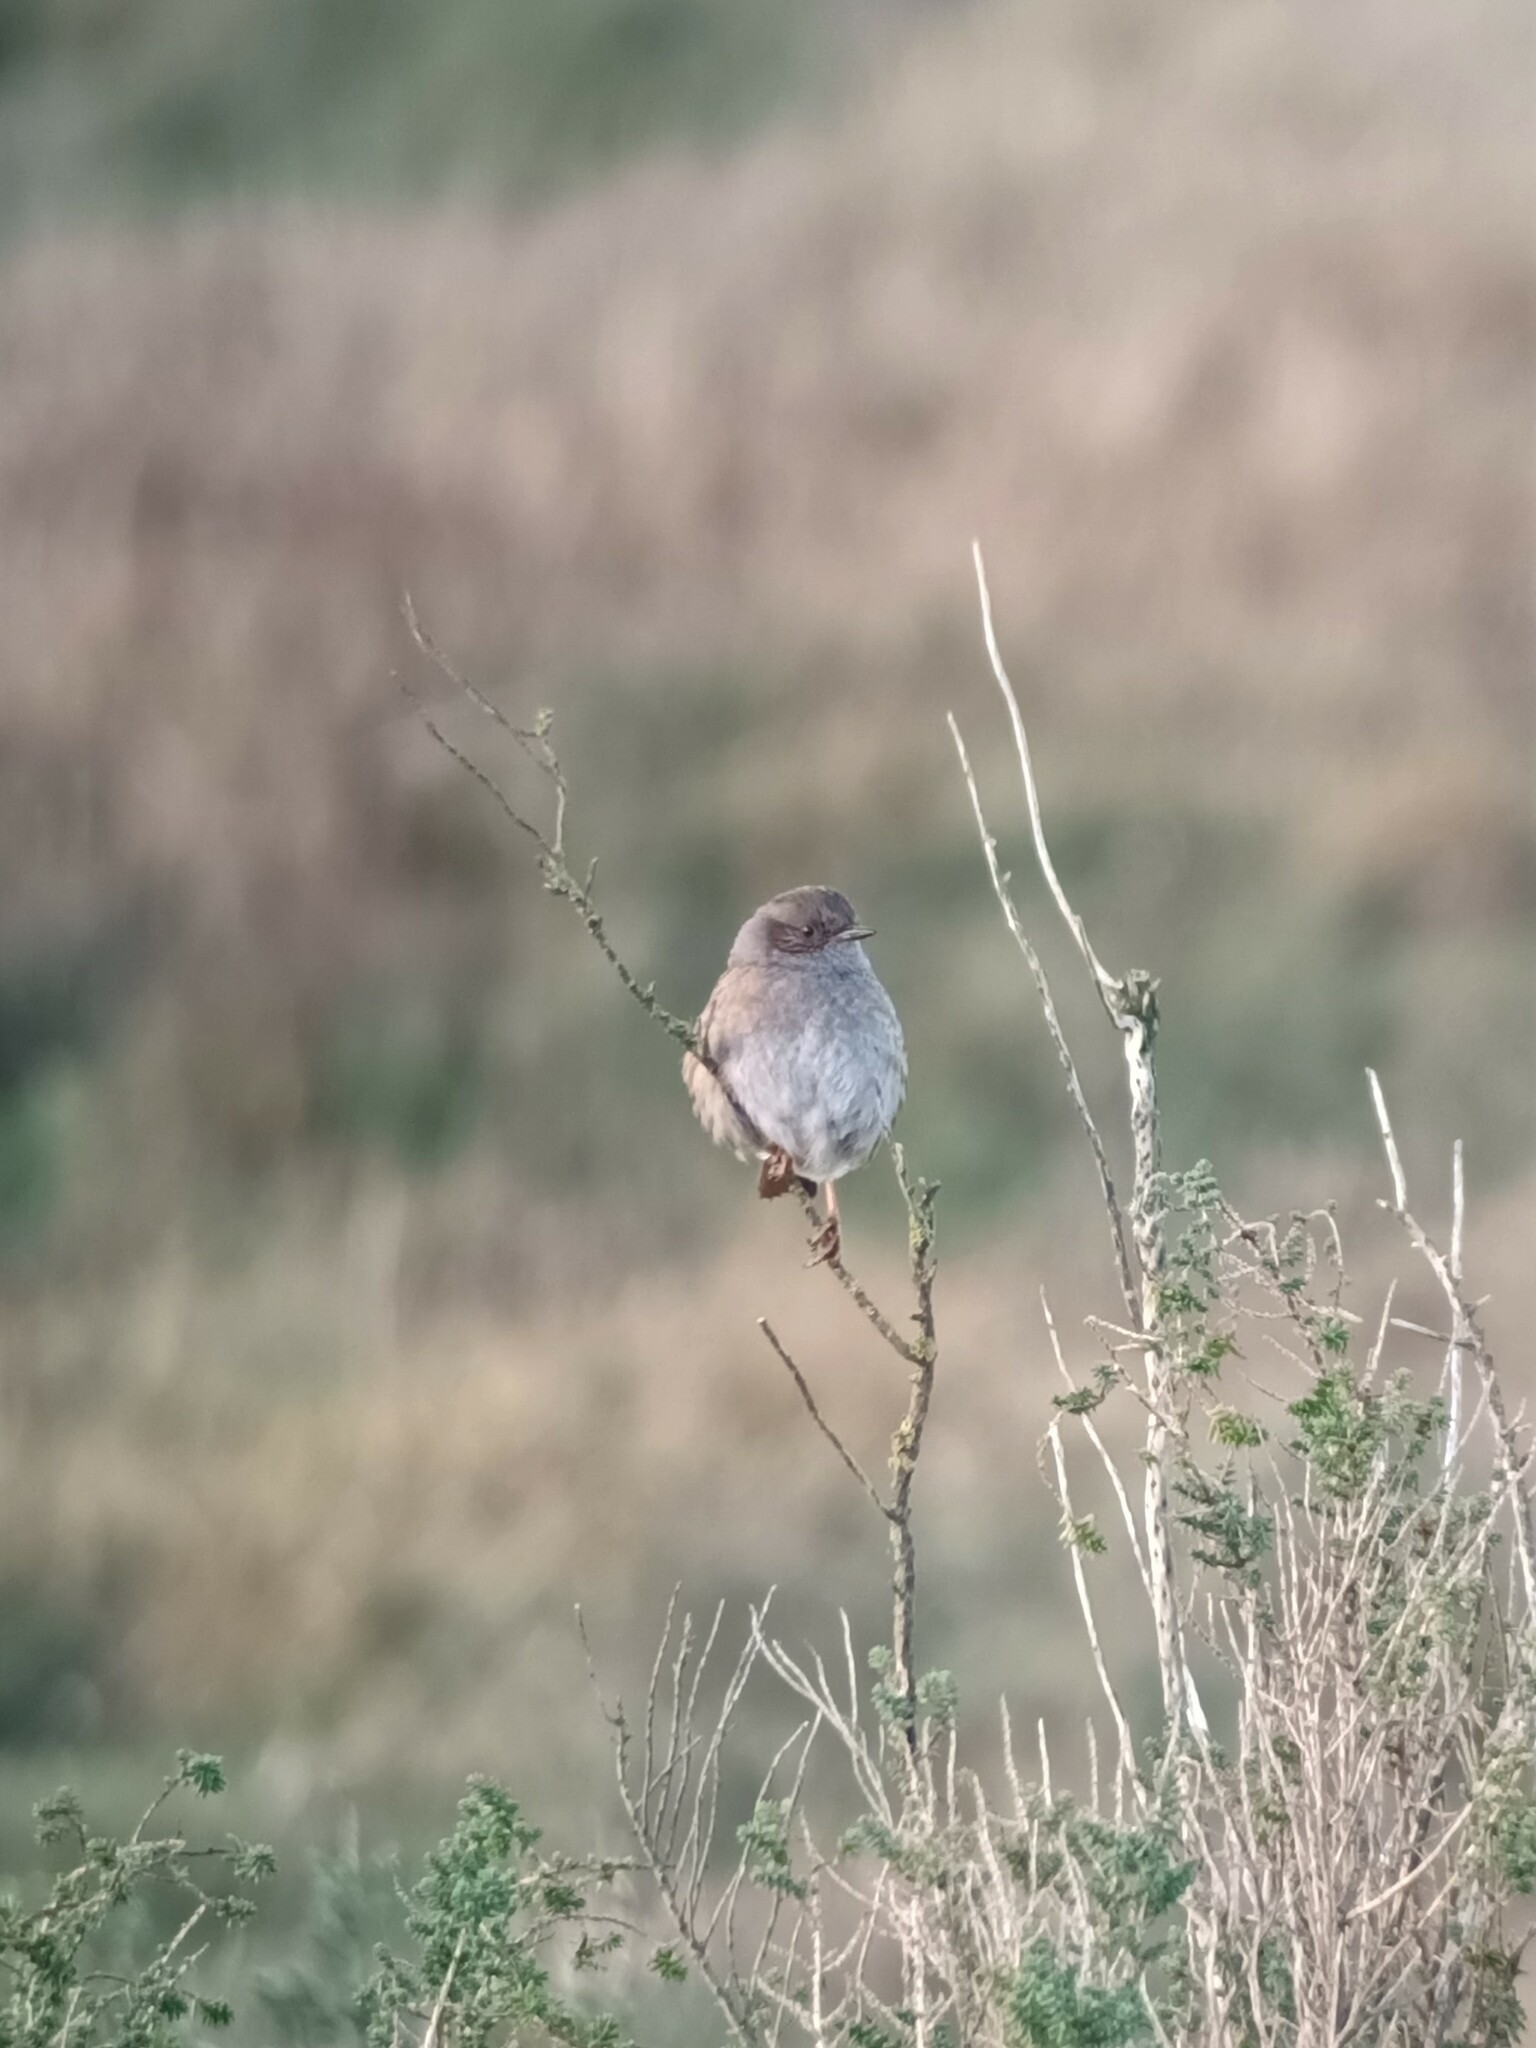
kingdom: Animalia
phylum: Chordata
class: Aves
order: Passeriformes
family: Prunellidae
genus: Prunella
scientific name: Prunella modularis
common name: Dunnock
